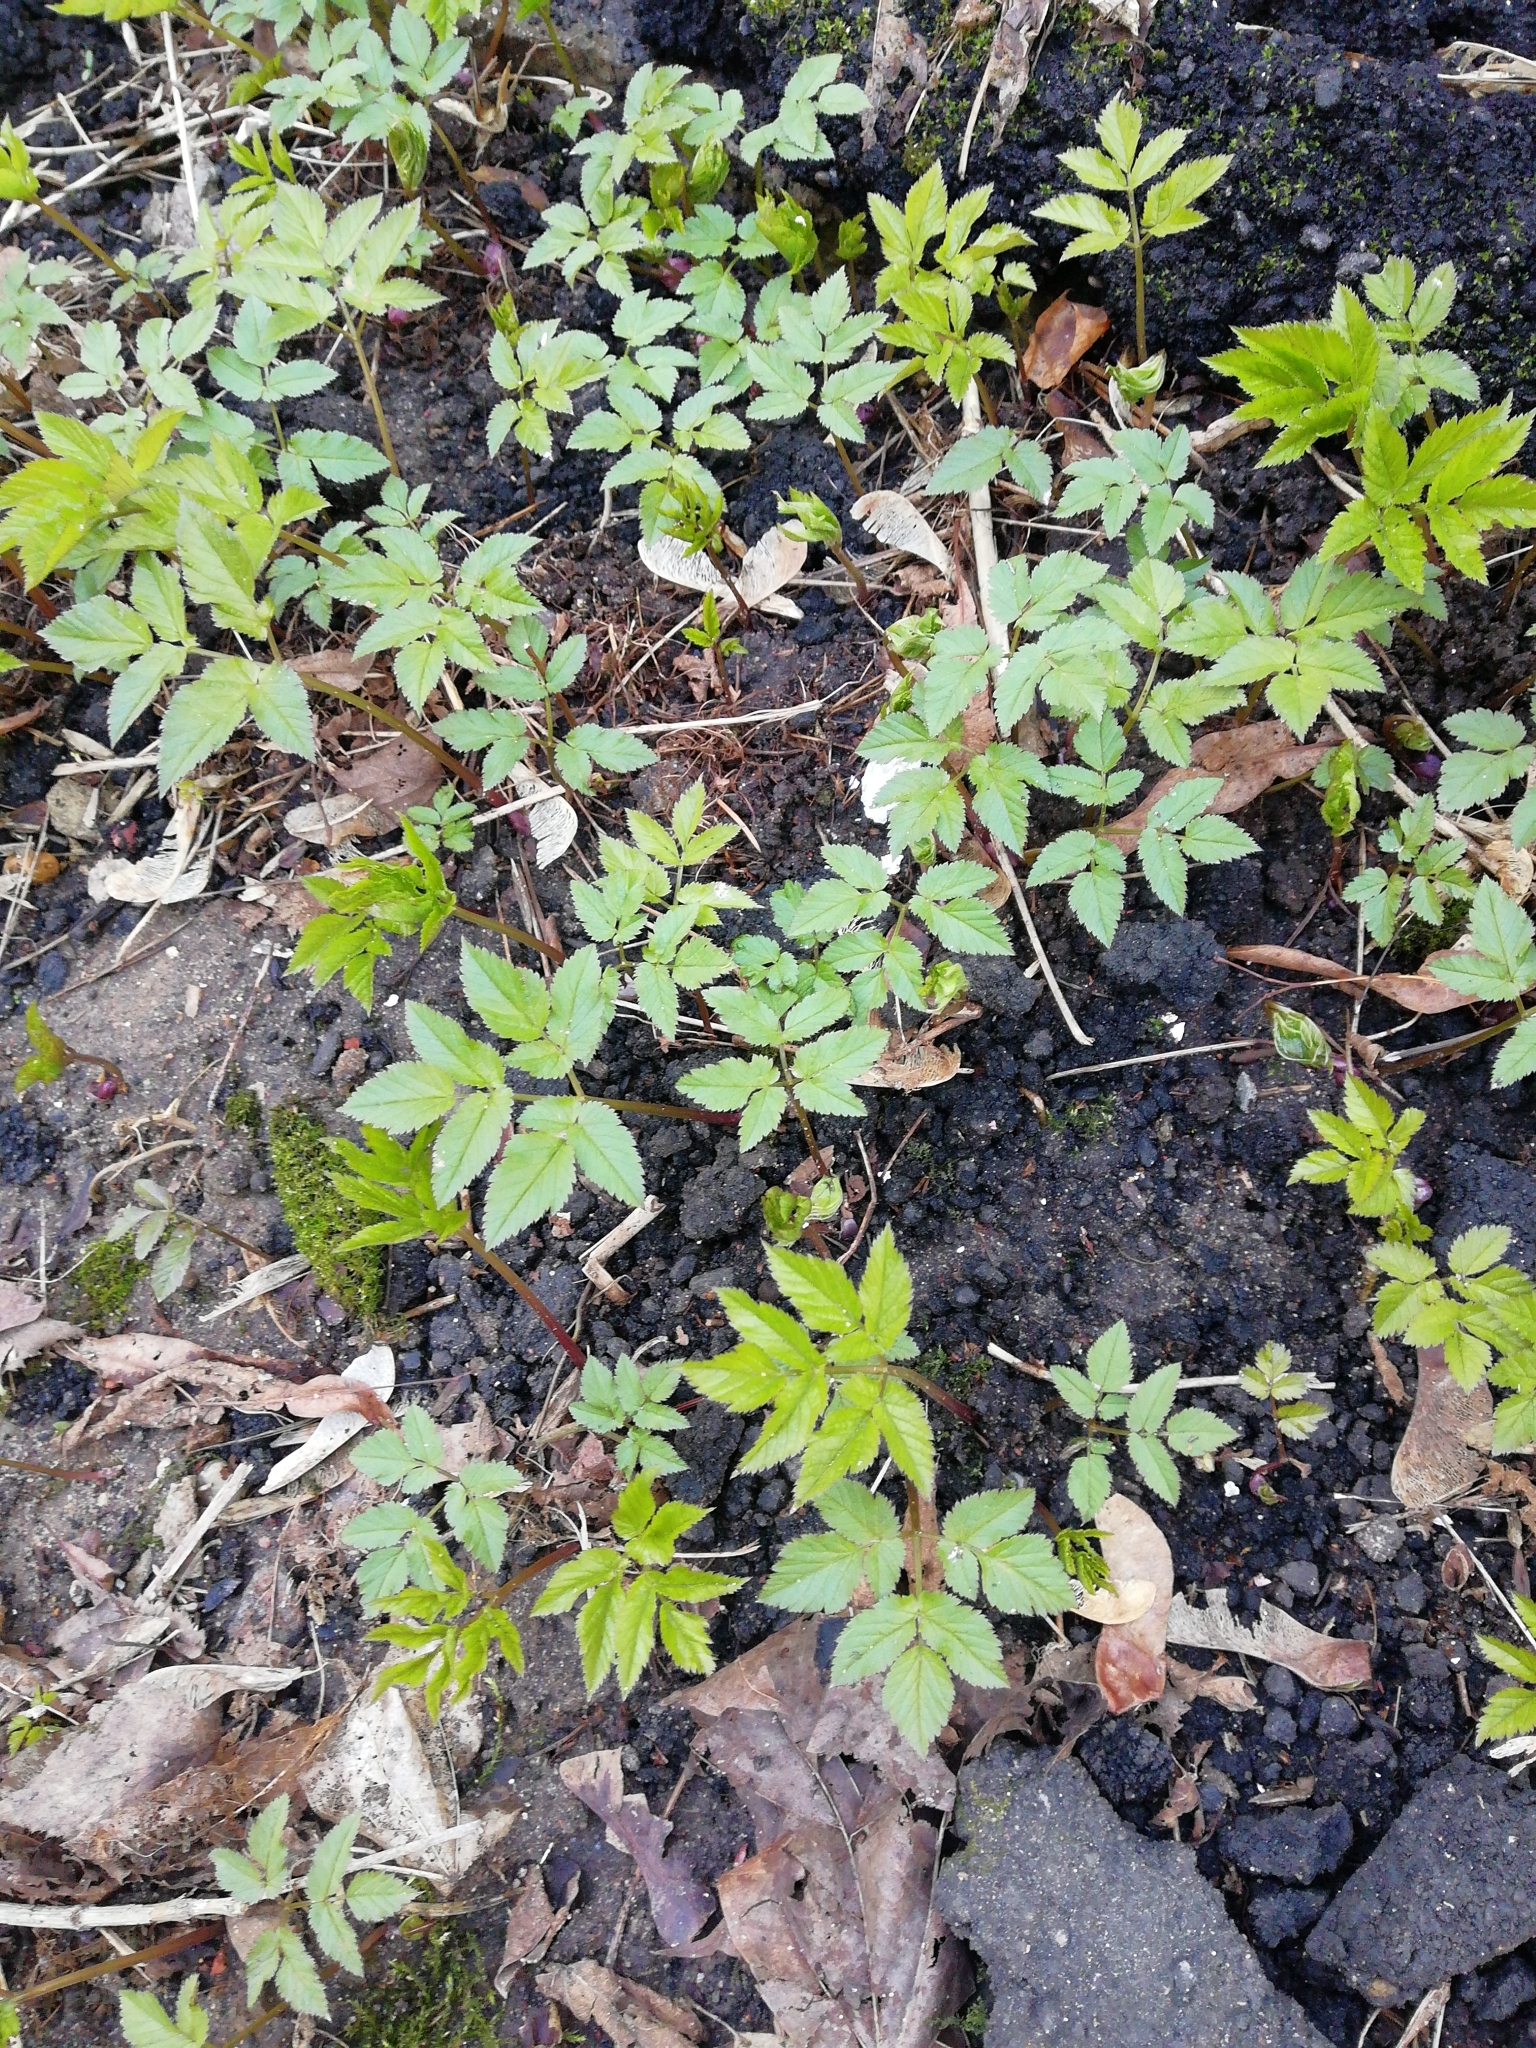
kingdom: Plantae
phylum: Tracheophyta
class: Magnoliopsida
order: Apiales
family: Apiaceae
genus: Aegopodium
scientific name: Aegopodium podagraria
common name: Ground-elder
